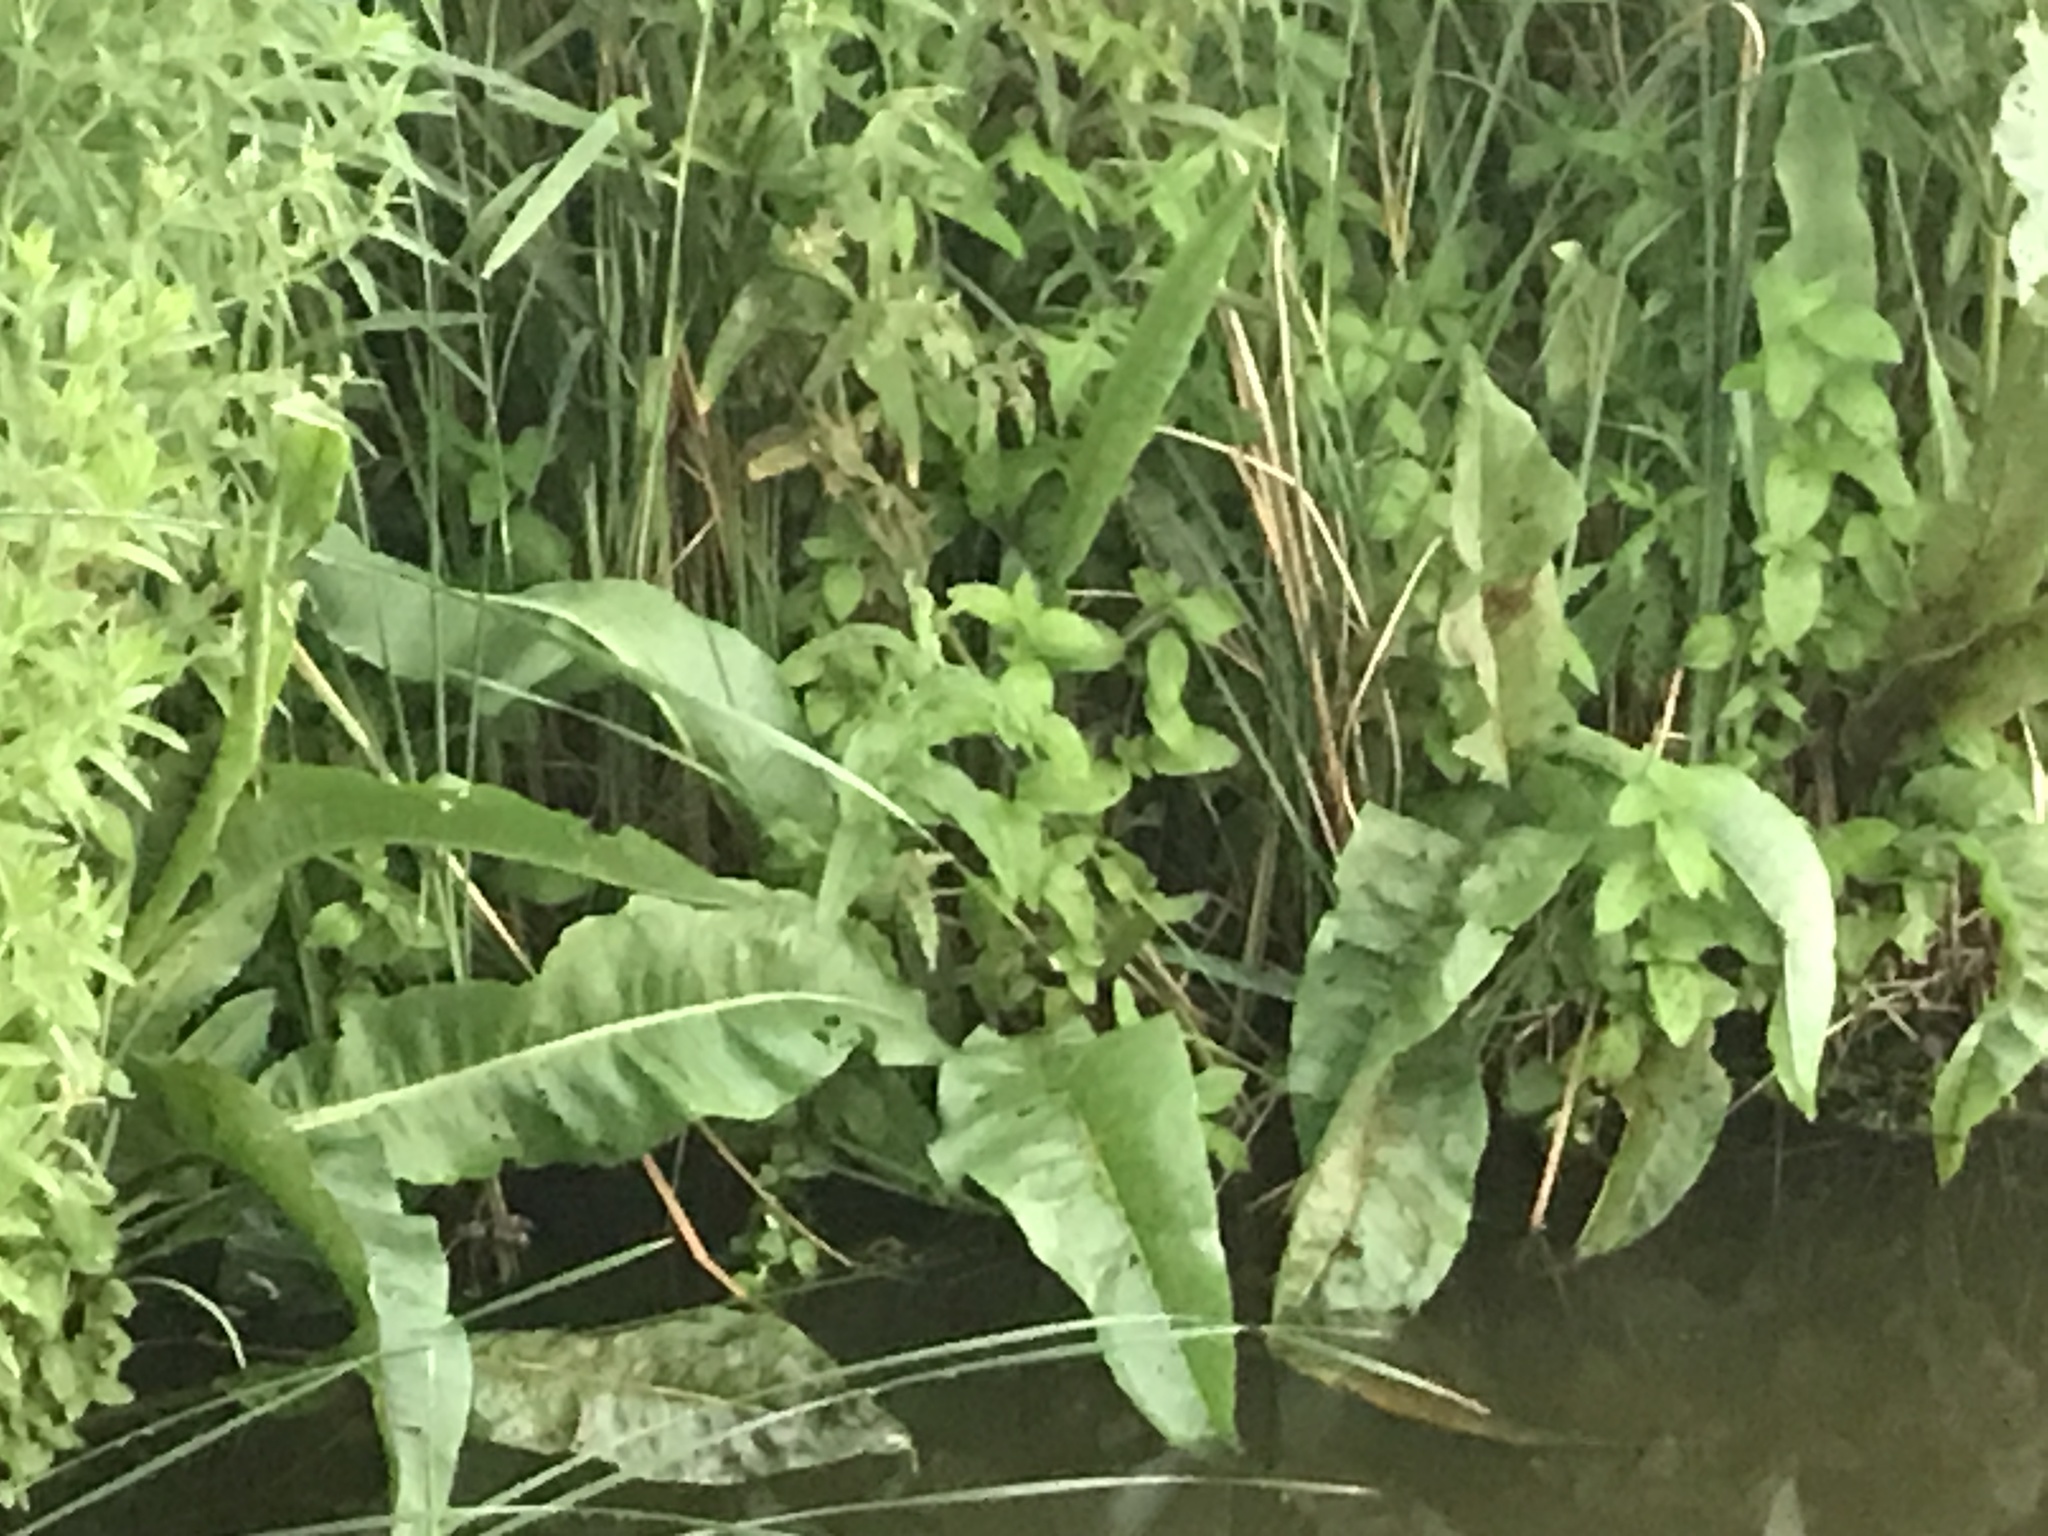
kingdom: Plantae
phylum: Tracheophyta
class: Magnoliopsida
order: Caryophyllales
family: Polygonaceae
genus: Rumex
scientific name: Rumex hydrolapathum
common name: Water dock
